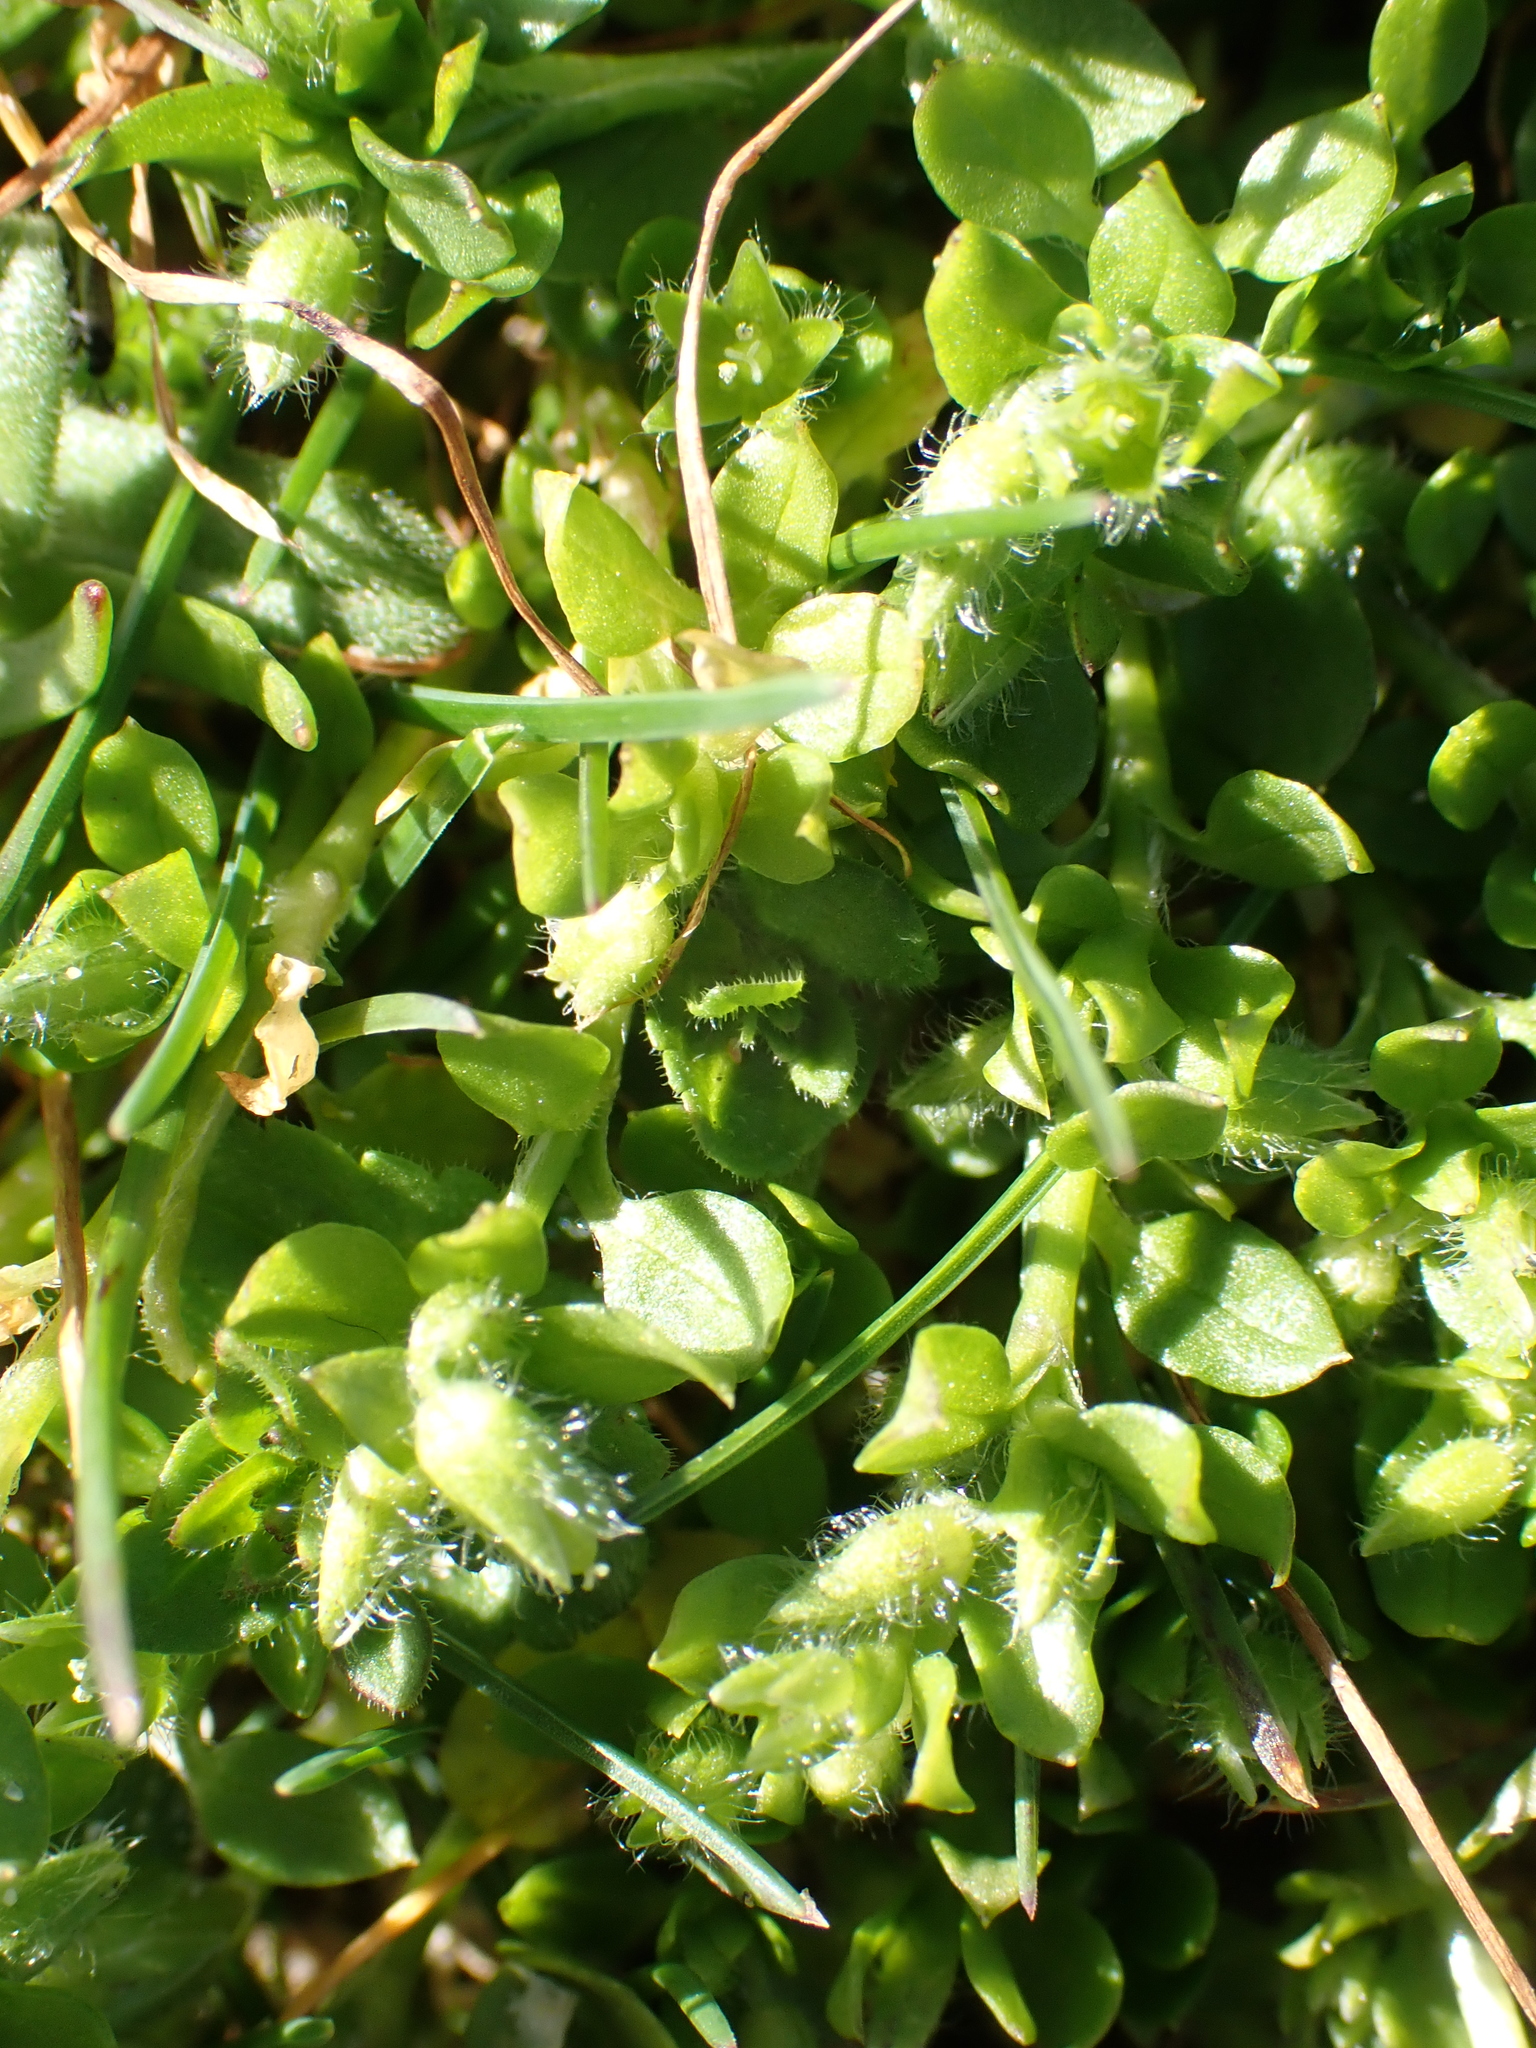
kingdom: Plantae
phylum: Tracheophyta
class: Magnoliopsida
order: Ranunculales
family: Papaveraceae
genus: Fumaria
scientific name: Fumaria capreolata
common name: White ramping-fumitory
